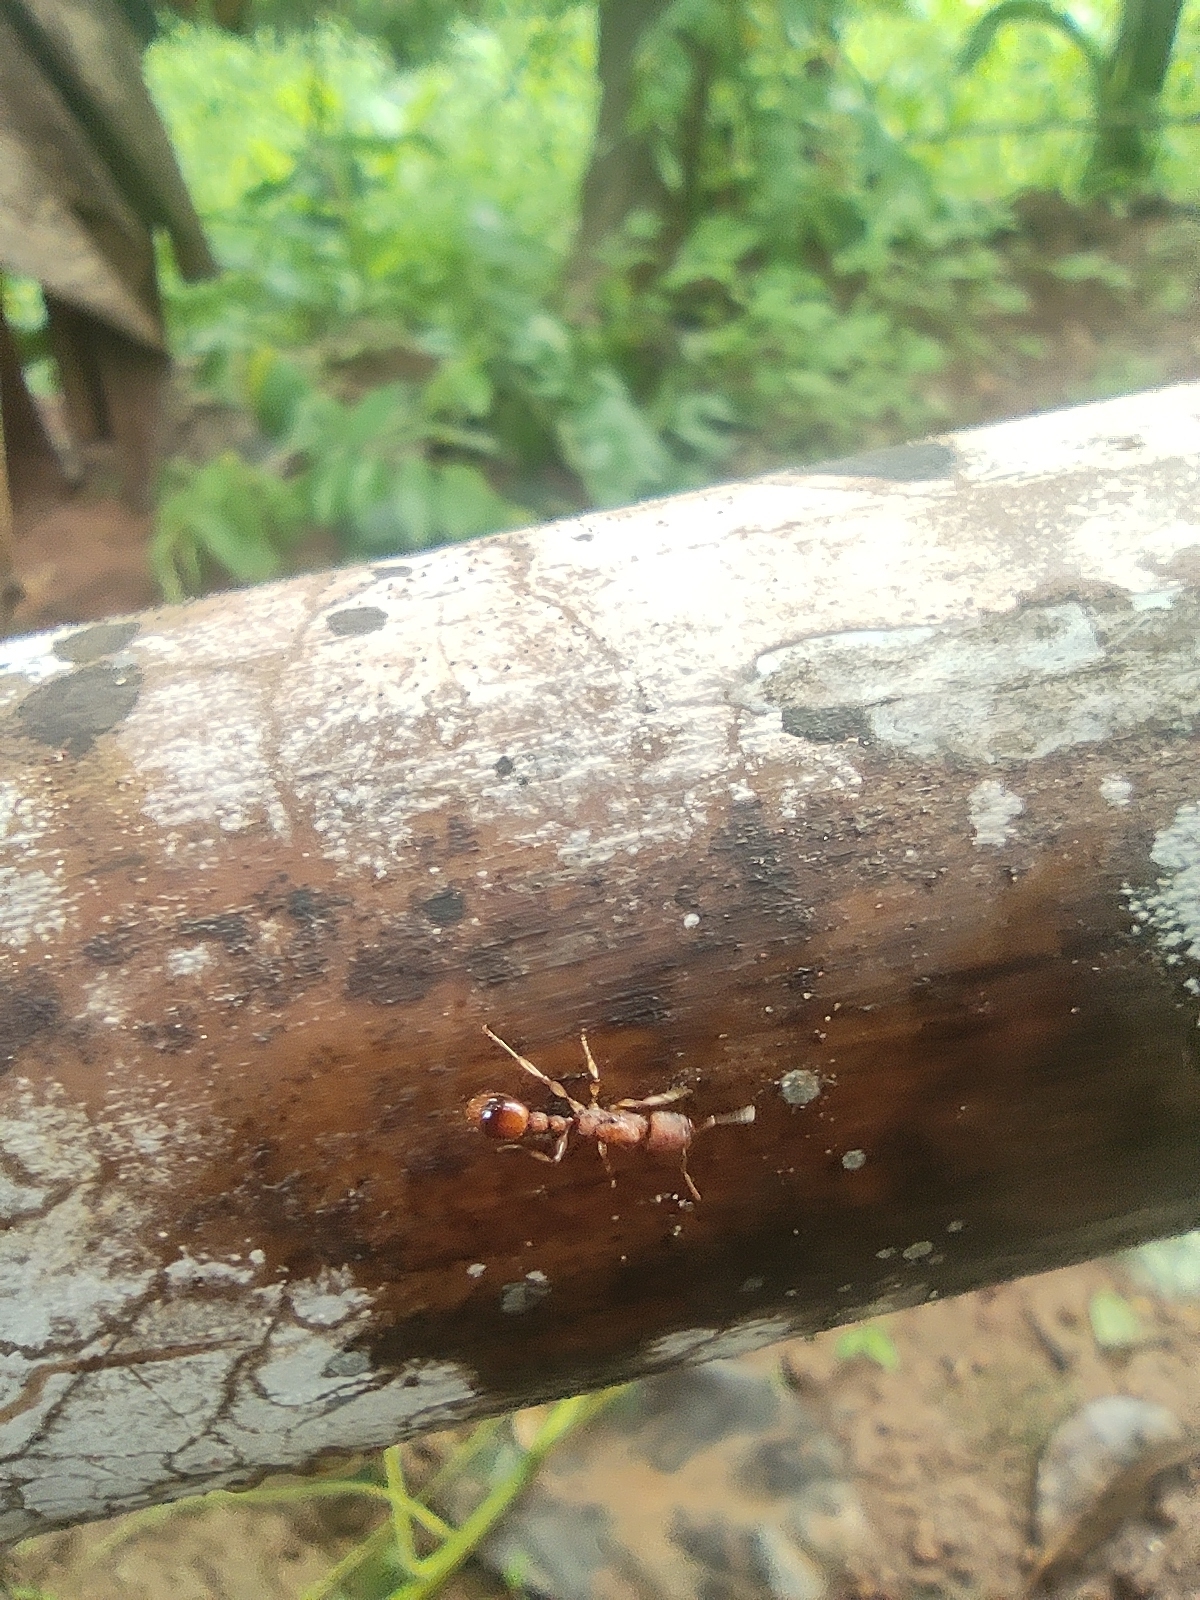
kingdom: Animalia
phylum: Arthropoda
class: Insecta
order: Hymenoptera
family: Formicidae
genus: Paratopula
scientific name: Paratopula ceylonica
